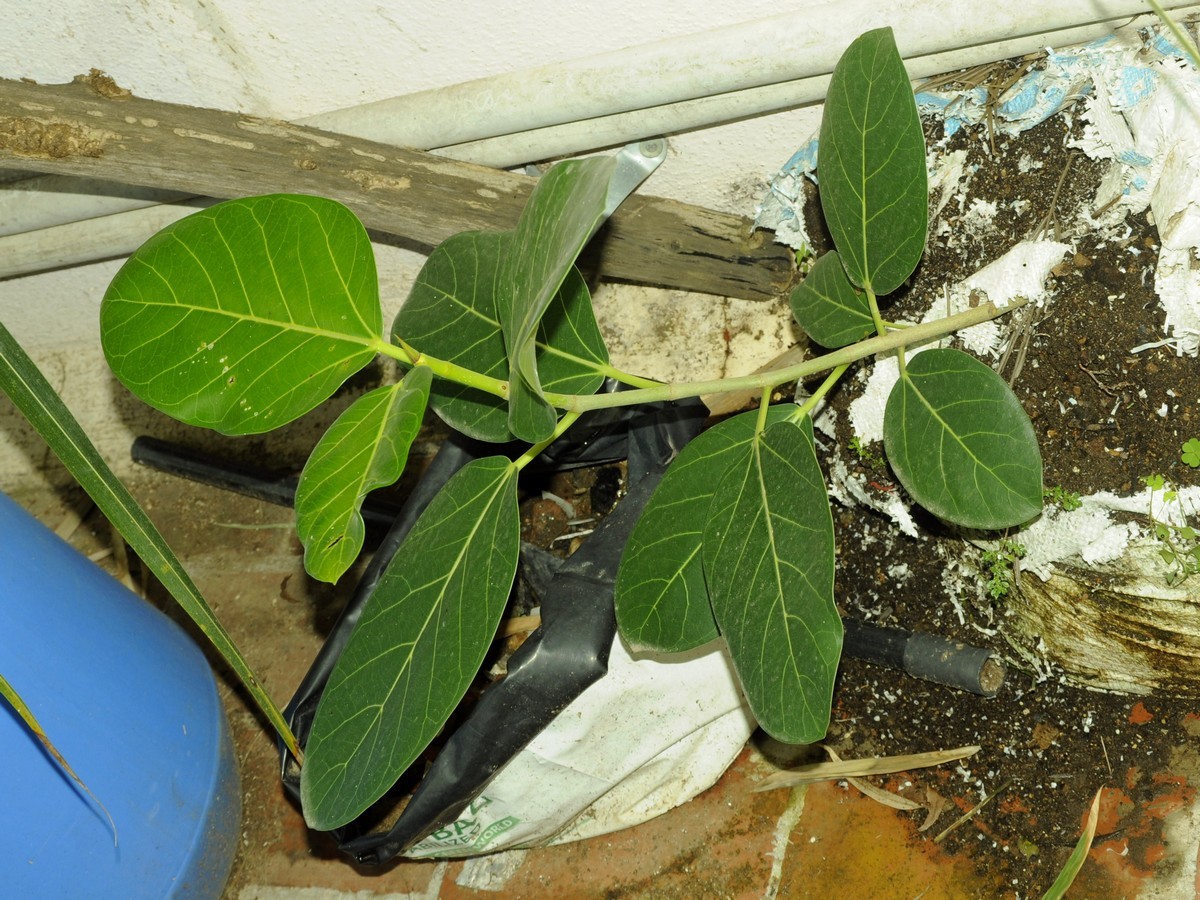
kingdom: Plantae
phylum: Tracheophyta
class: Magnoliopsida
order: Rosales
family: Moraceae
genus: Ficus
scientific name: Ficus benghalensis
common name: Indian banyan
